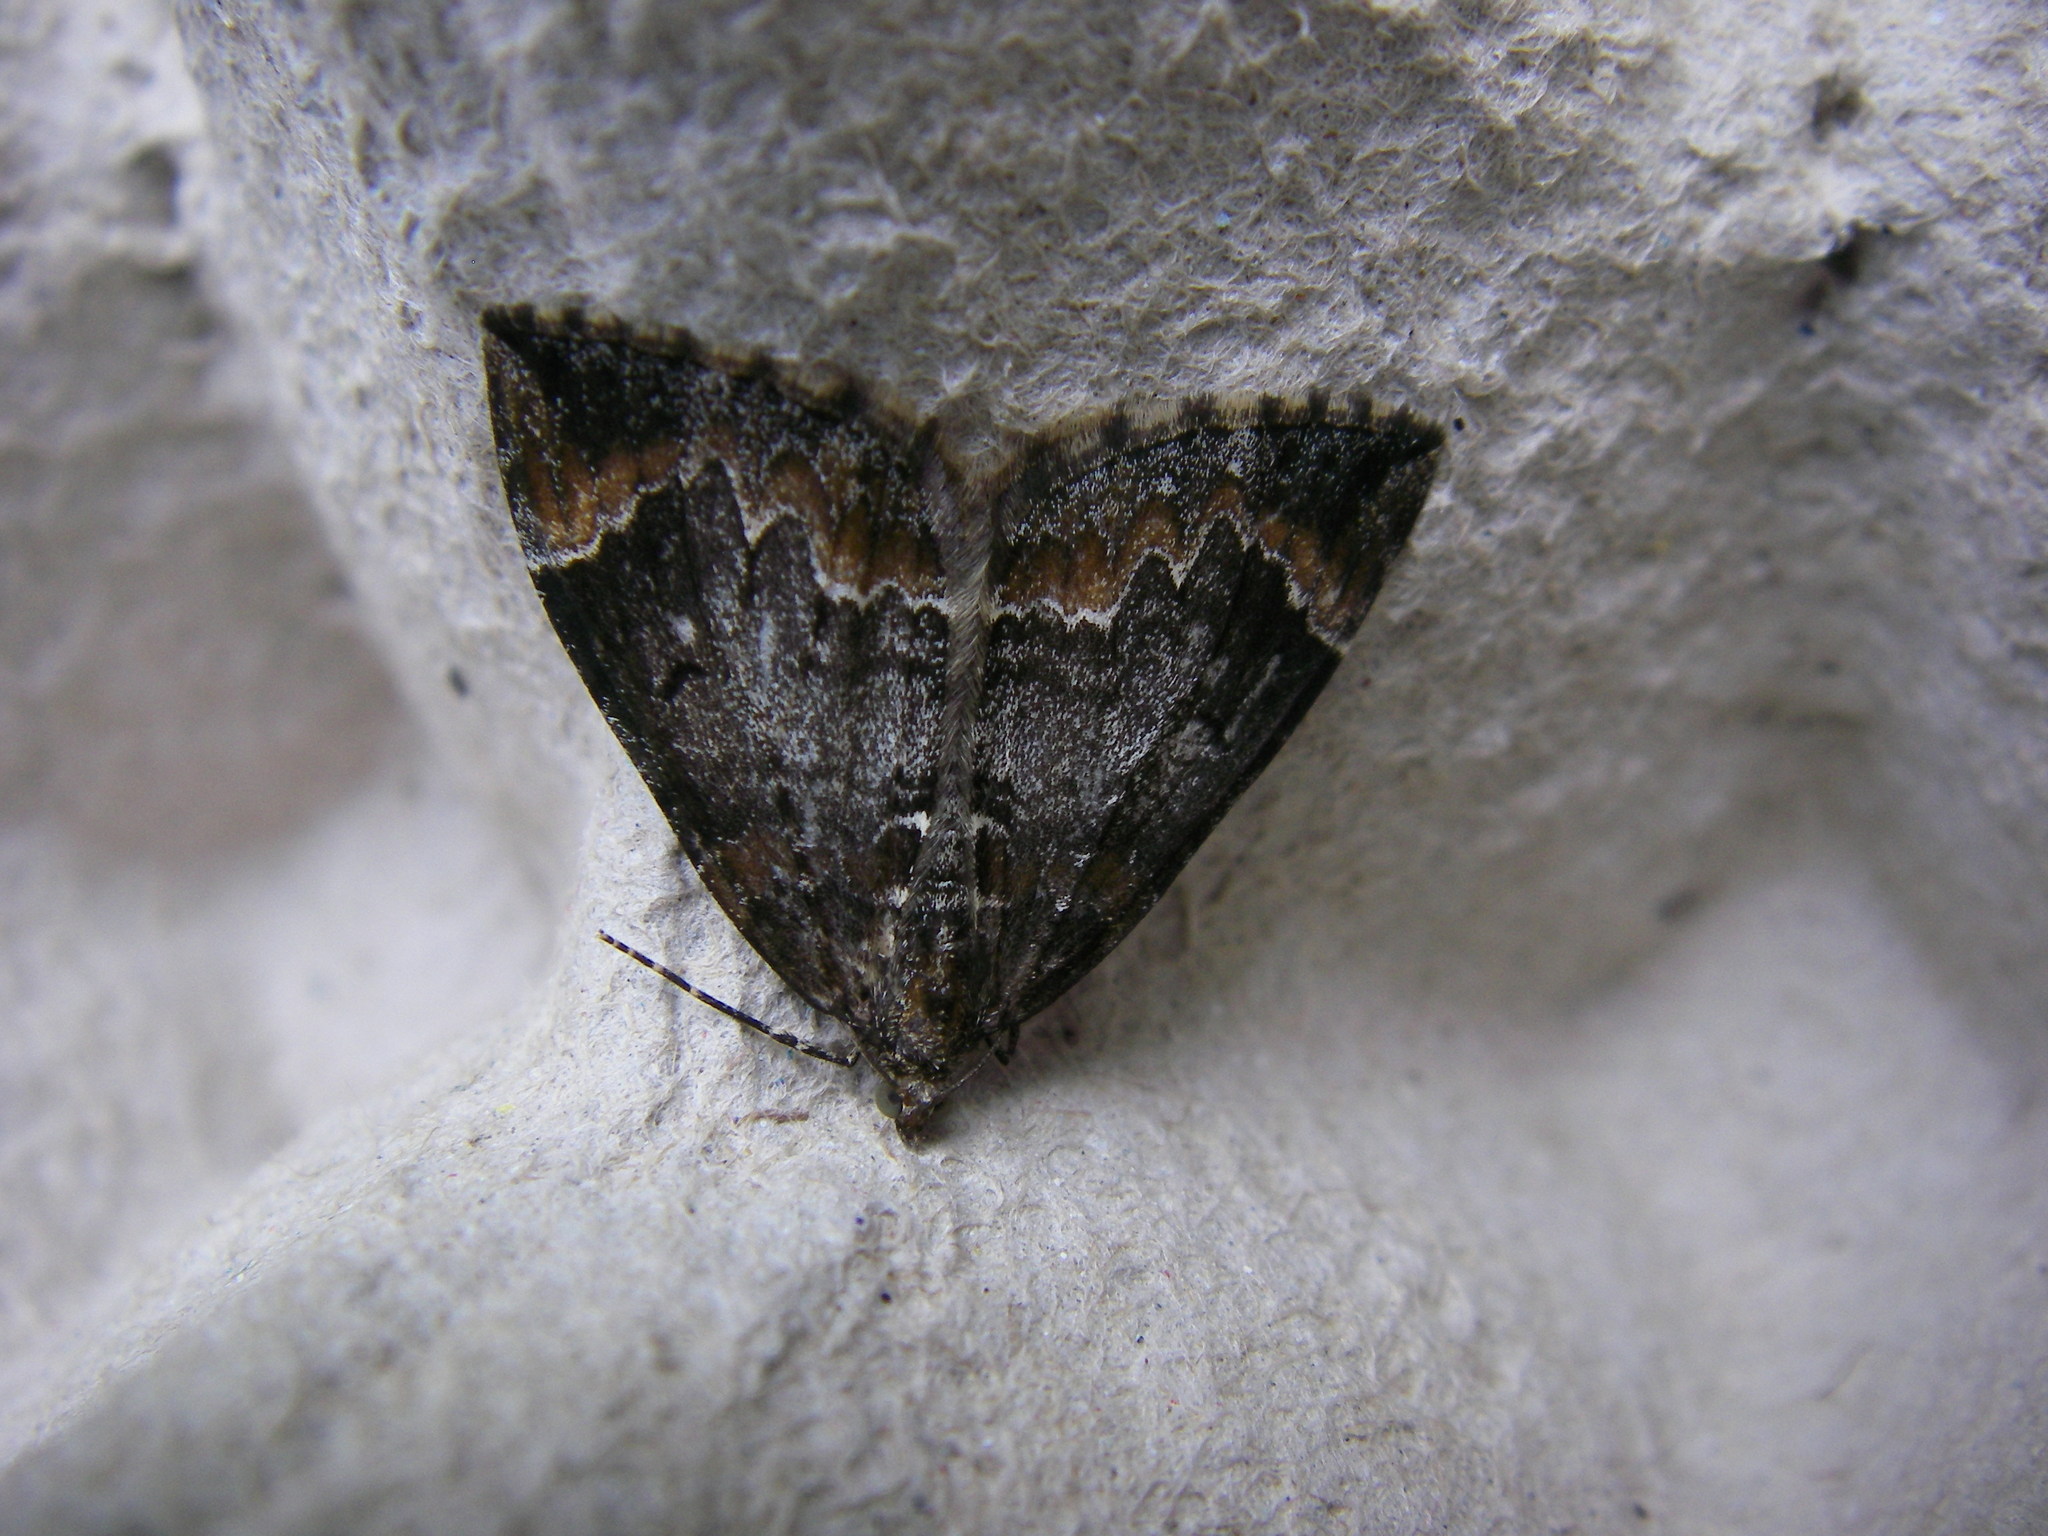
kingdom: Animalia
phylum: Arthropoda
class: Insecta
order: Lepidoptera
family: Geometridae
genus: Dysstroma
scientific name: Dysstroma truncata
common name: Common marbled carpet
